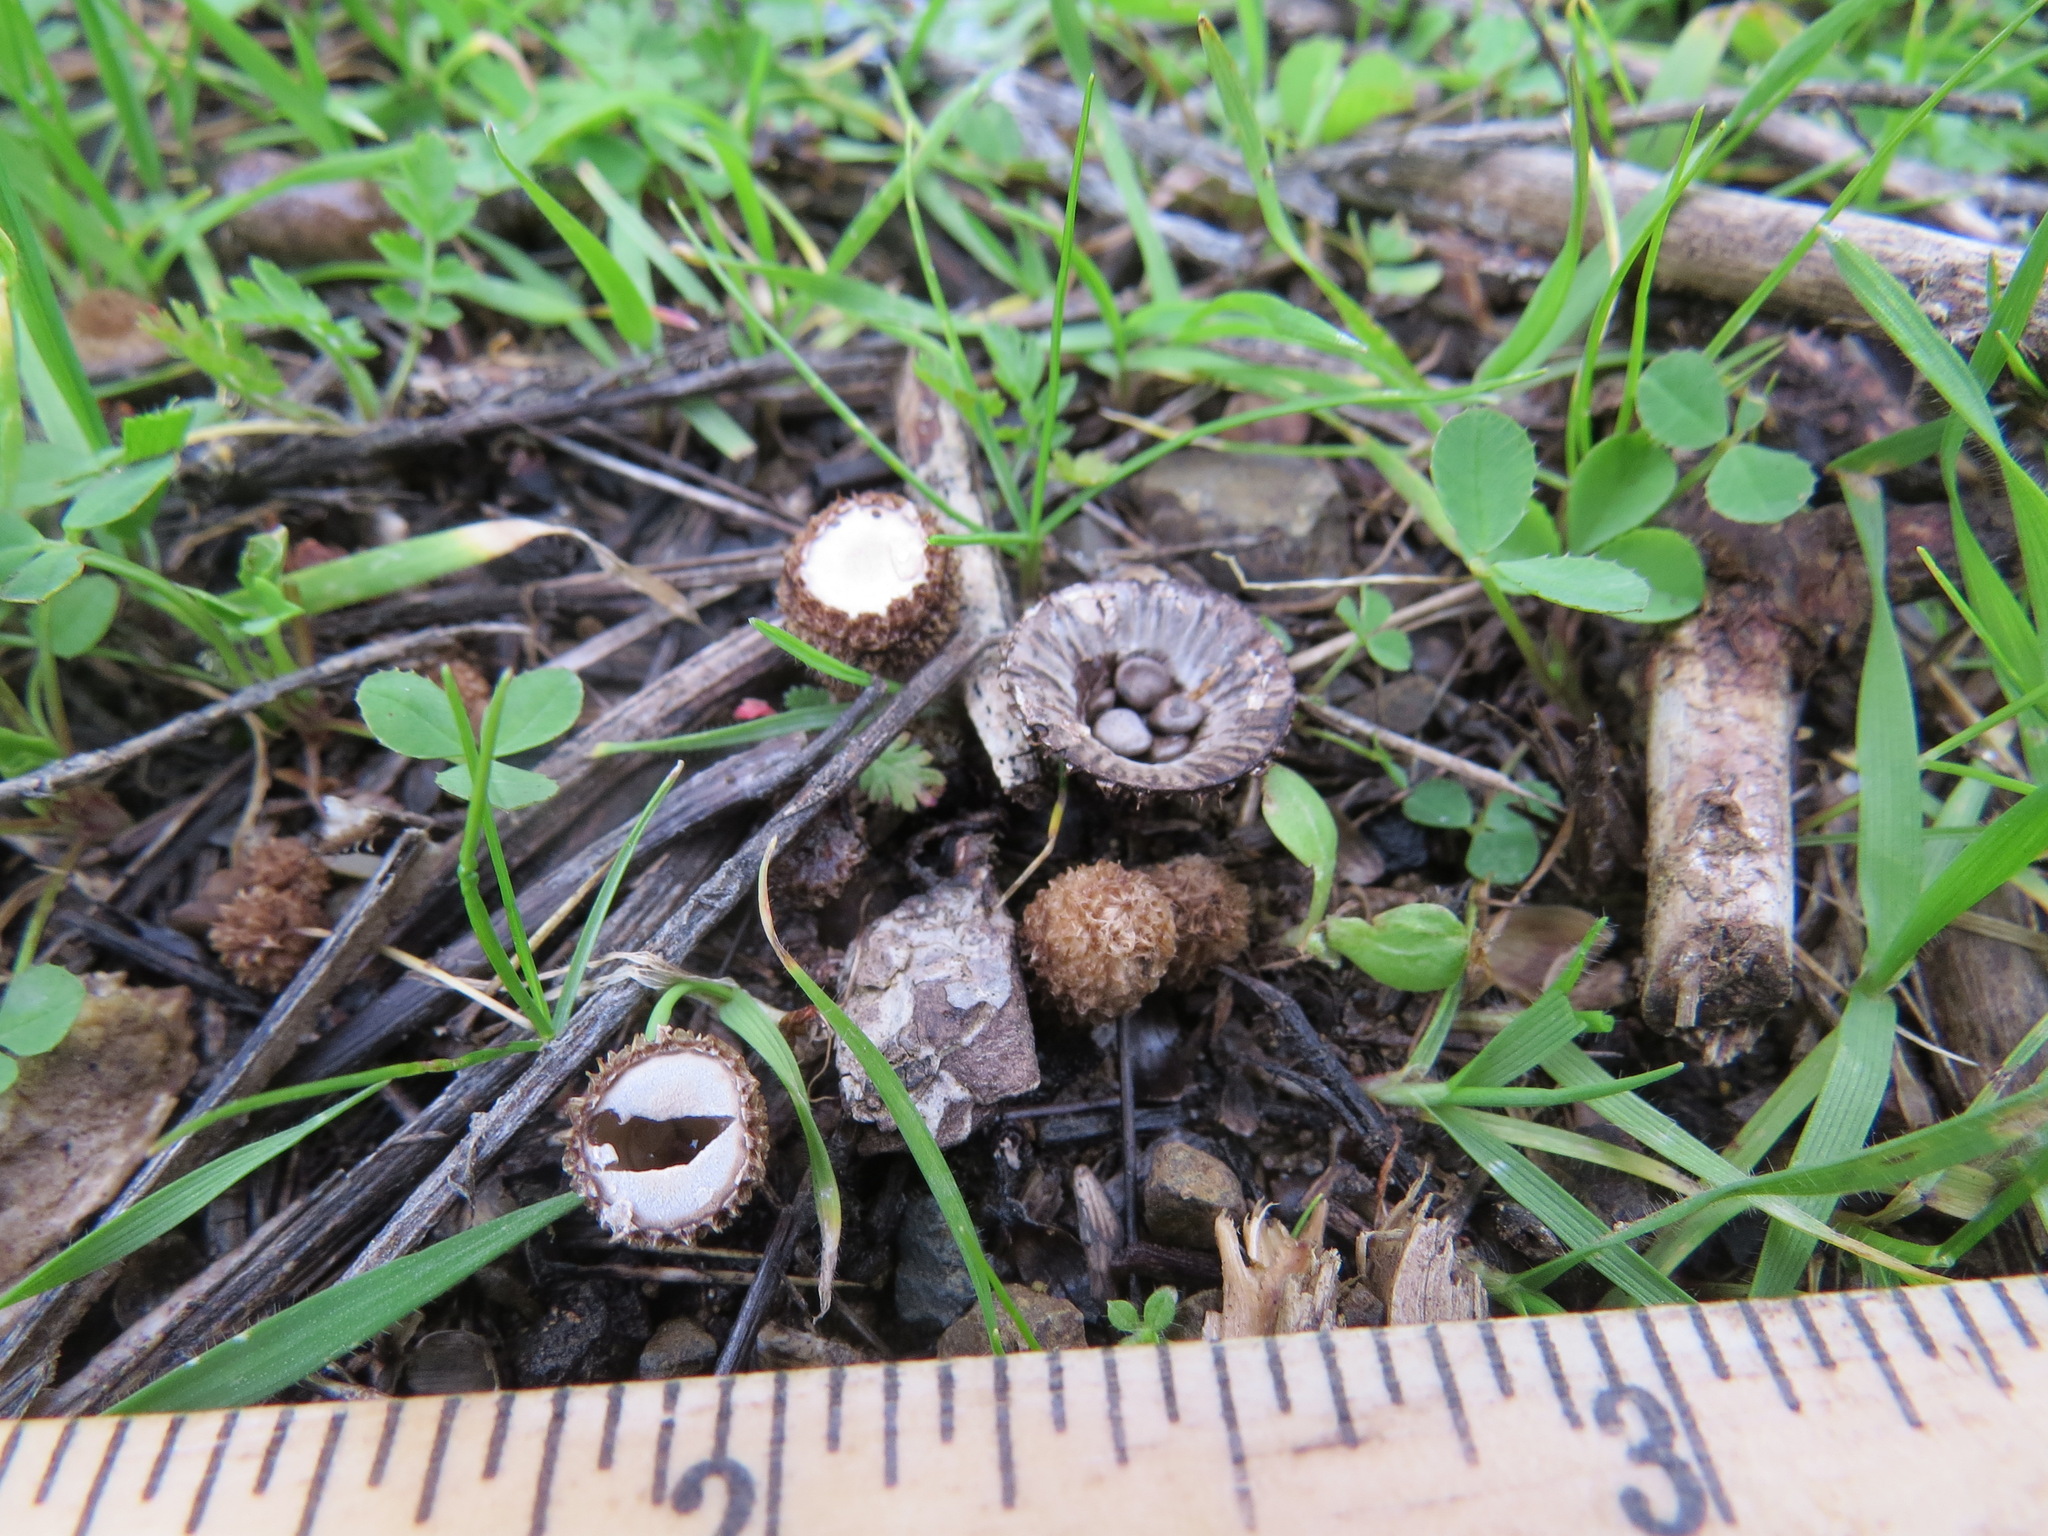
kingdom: Fungi
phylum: Basidiomycota
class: Agaricomycetes
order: Agaricales
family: Agaricaceae
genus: Cyathus
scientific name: Cyathus striatus
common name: Fluted bird's nest
